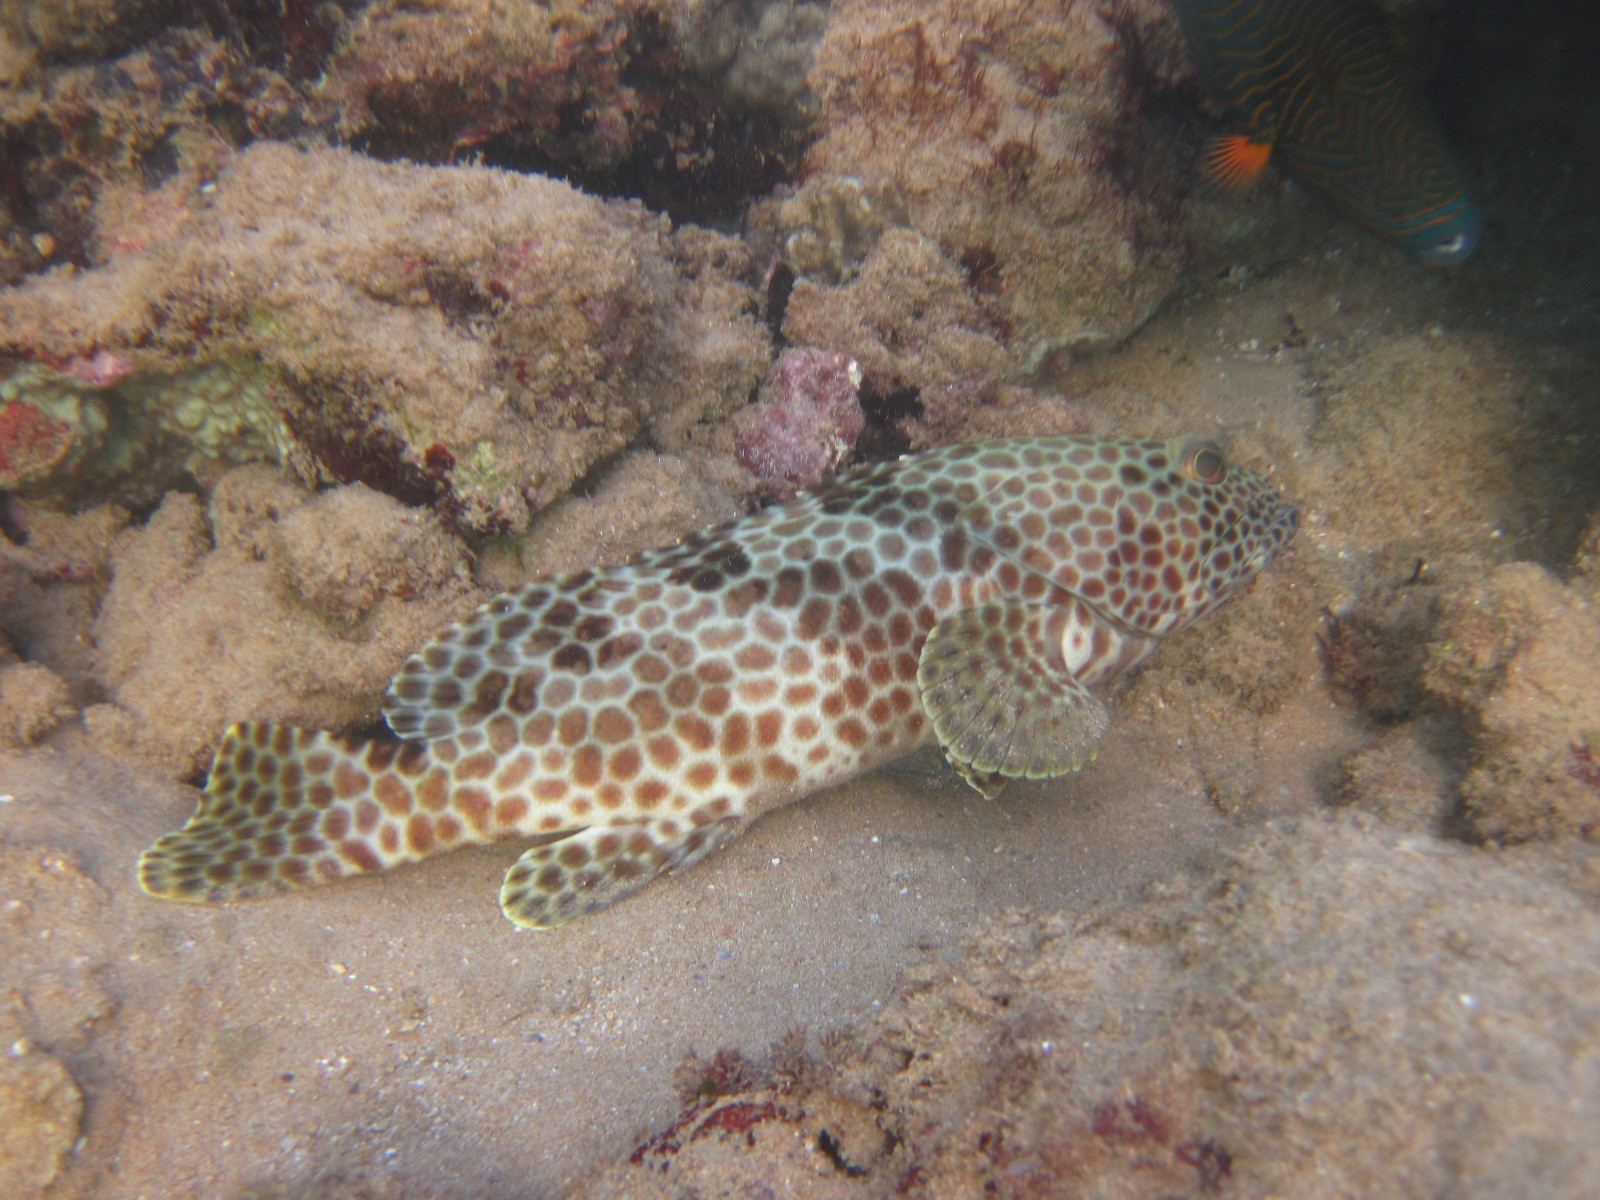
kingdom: Animalia
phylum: Chordata
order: Perciformes
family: Serranidae
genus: Epinephelus
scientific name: Epinephelus merra
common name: Honeycomb grouper
